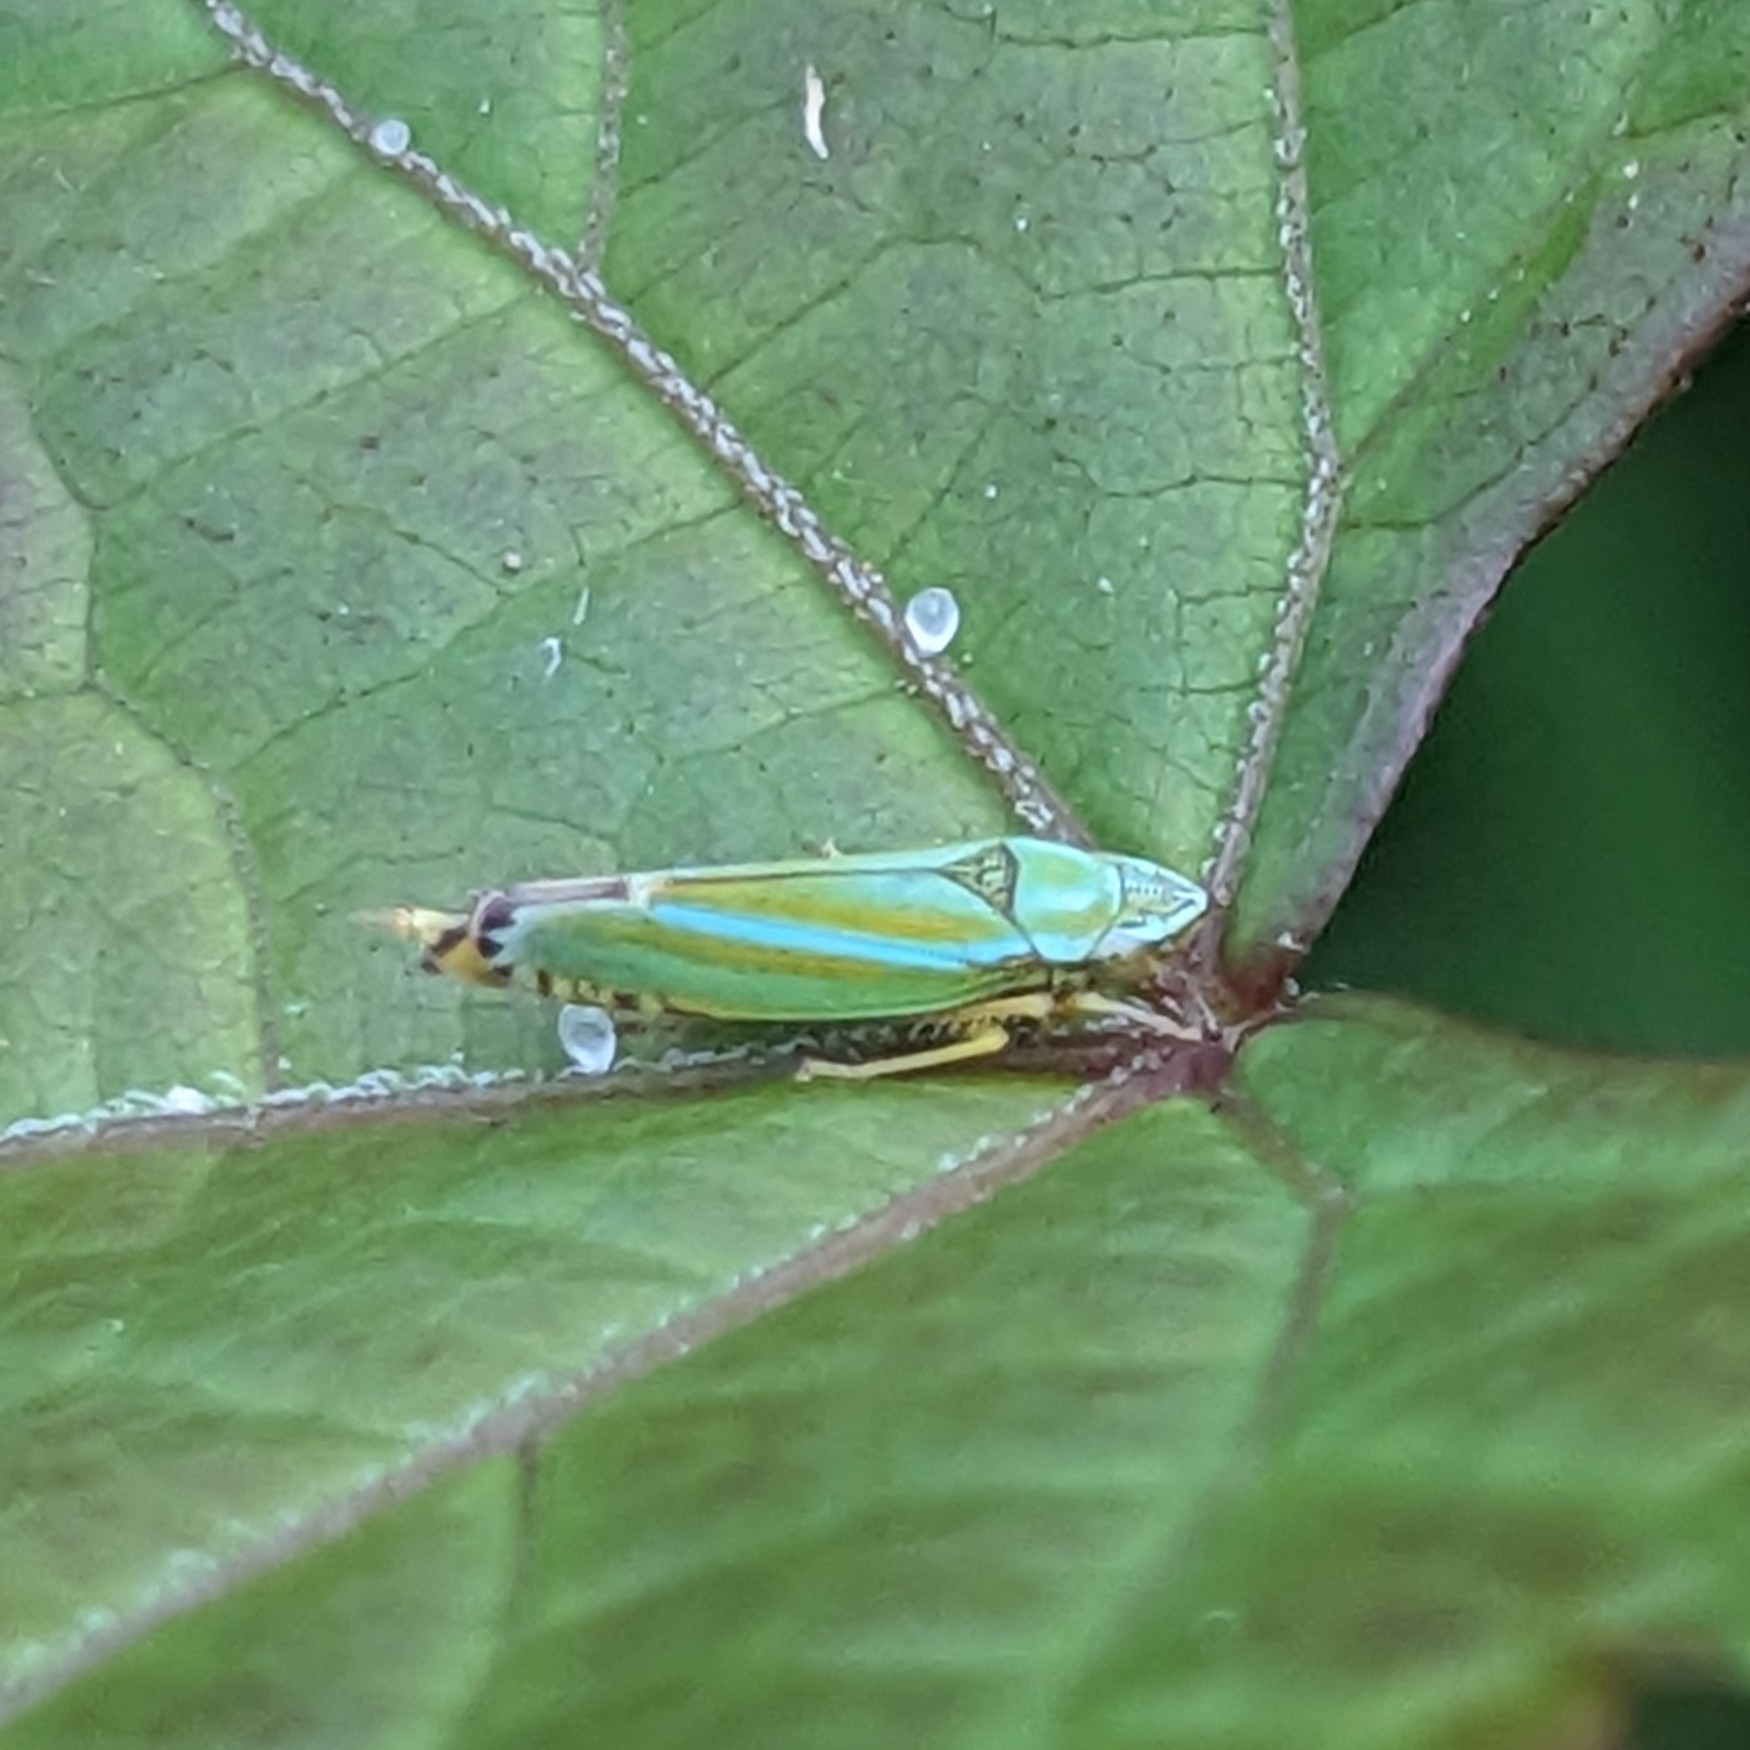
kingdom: Animalia
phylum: Arthropoda
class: Insecta
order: Hemiptera
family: Cicadellidae
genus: Graphocephala
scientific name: Graphocephala versuta
